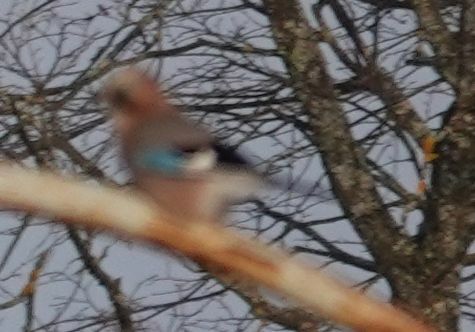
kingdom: Animalia
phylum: Chordata
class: Aves
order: Passeriformes
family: Corvidae
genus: Garrulus
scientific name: Garrulus glandarius
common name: Eurasian jay
